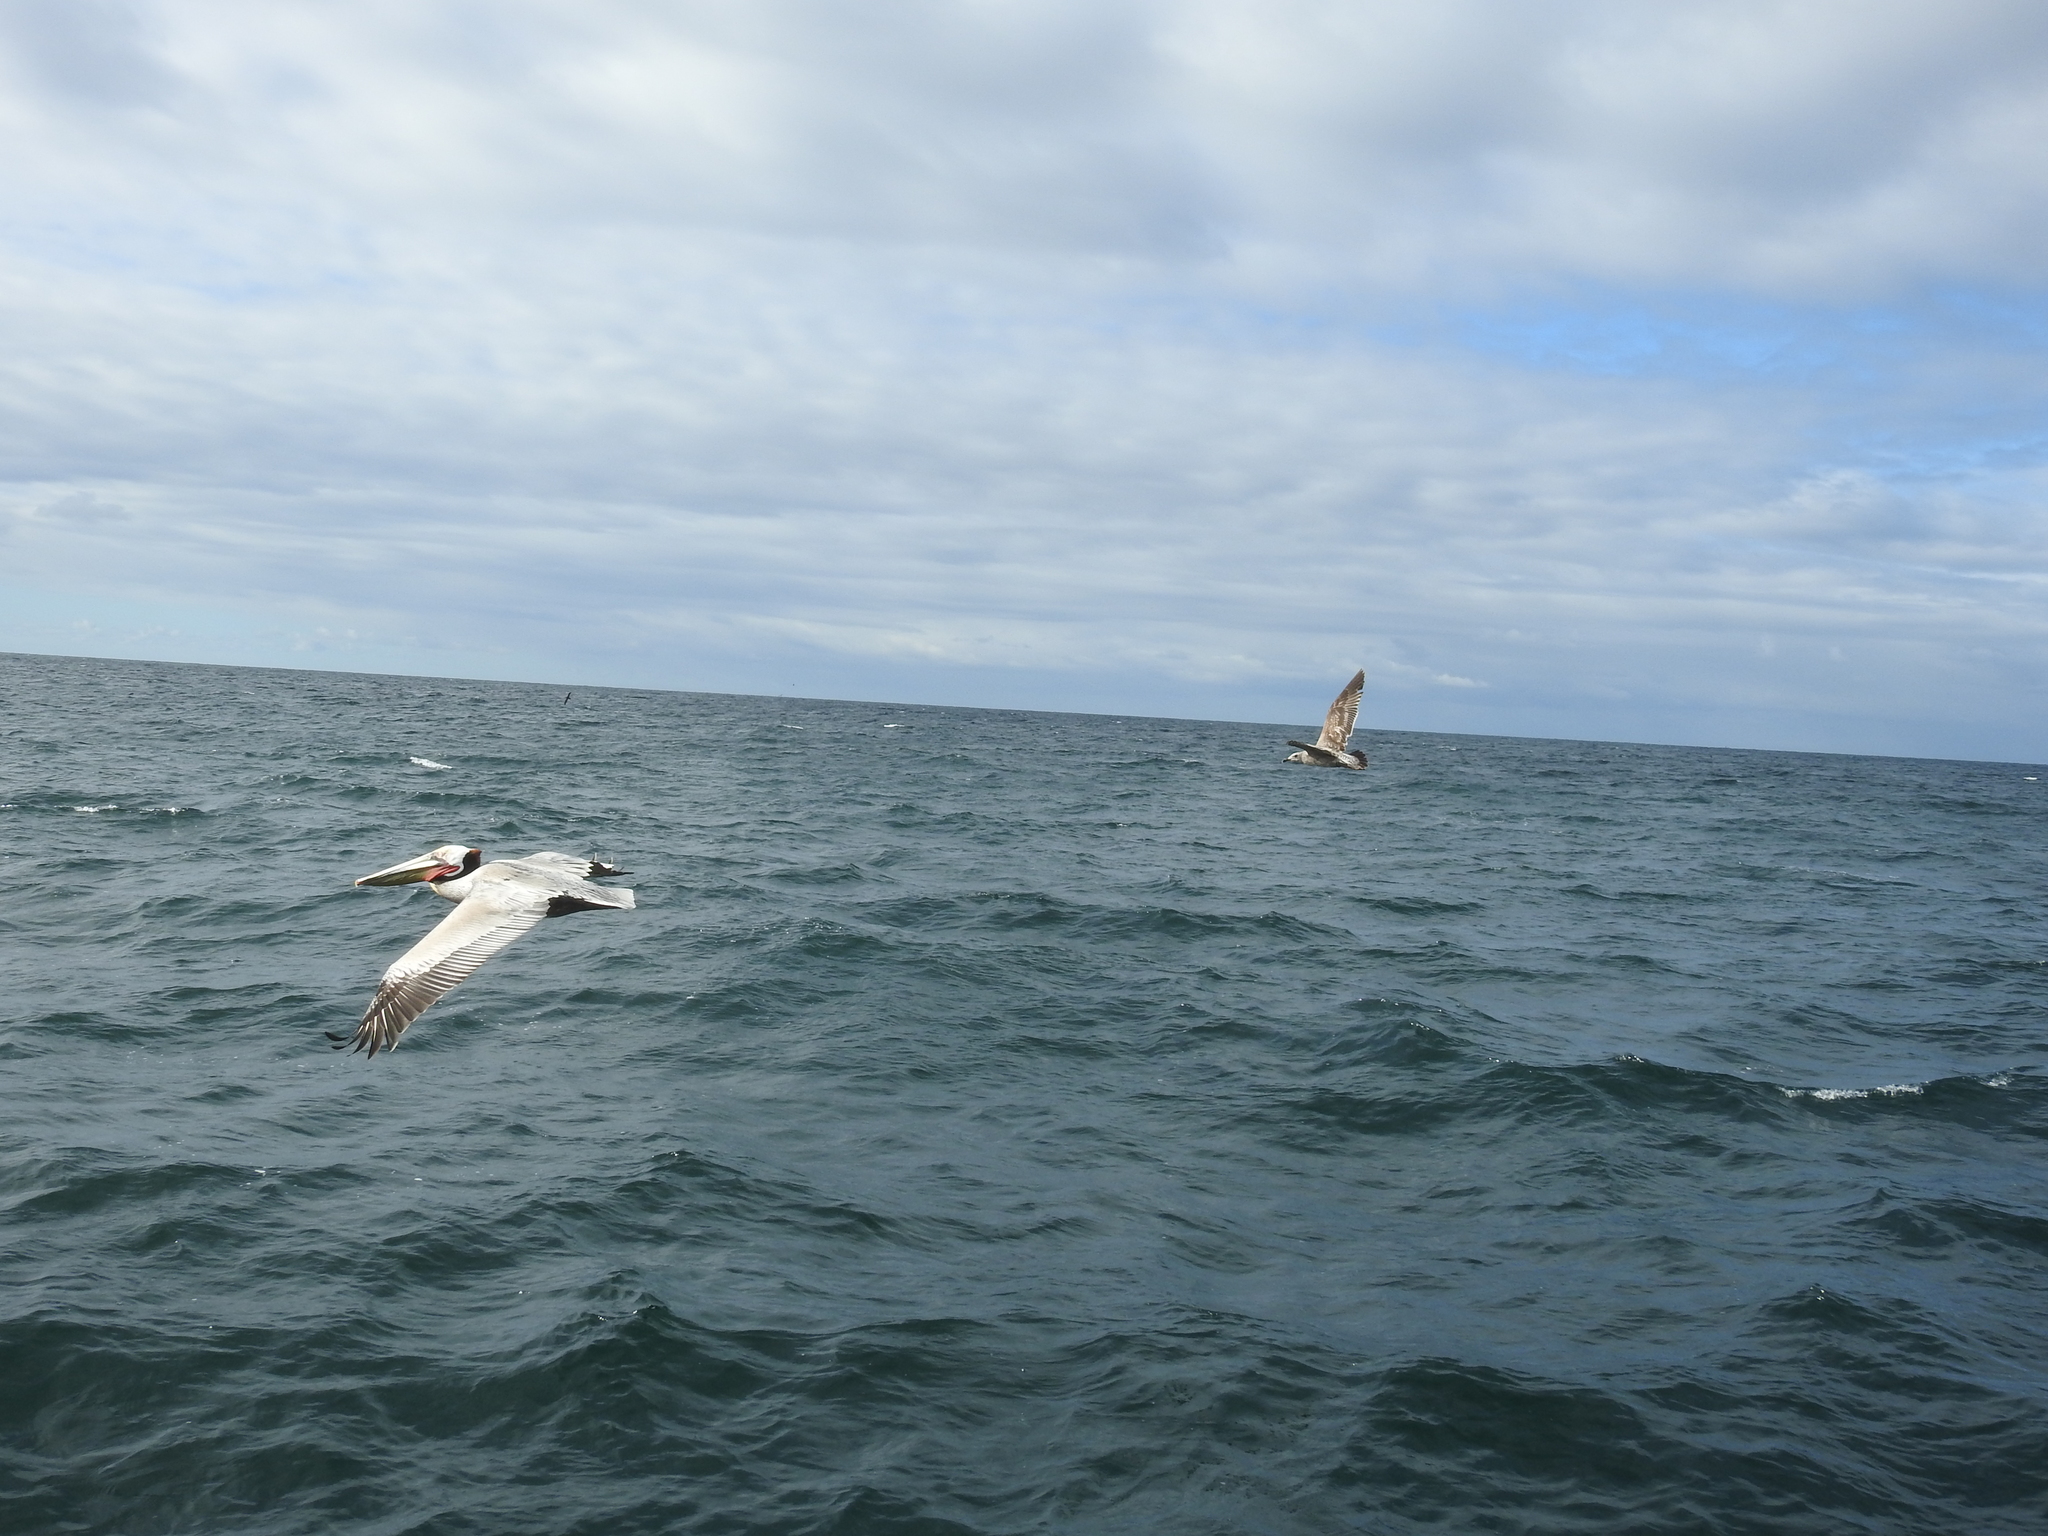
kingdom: Animalia
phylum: Chordata
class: Aves
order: Pelecaniformes
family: Pelecanidae
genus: Pelecanus
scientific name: Pelecanus occidentalis
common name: Brown pelican
